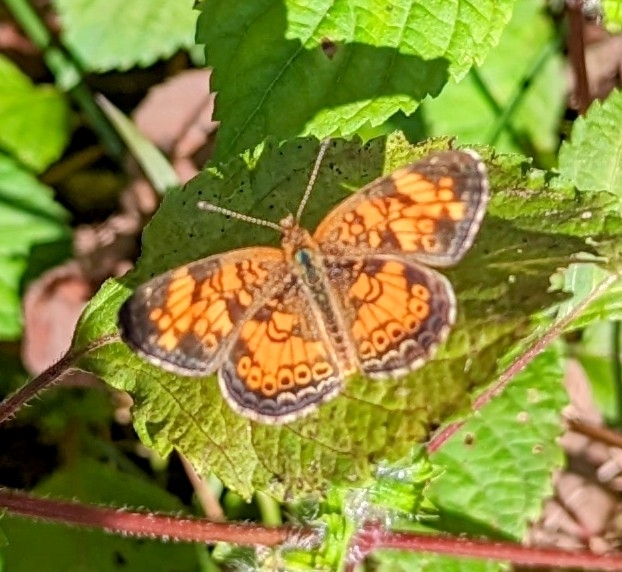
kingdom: Animalia
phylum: Arthropoda
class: Insecta
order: Lepidoptera
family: Nymphalidae
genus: Phyciodes
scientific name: Phyciodes tharos
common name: Pearl crescent
